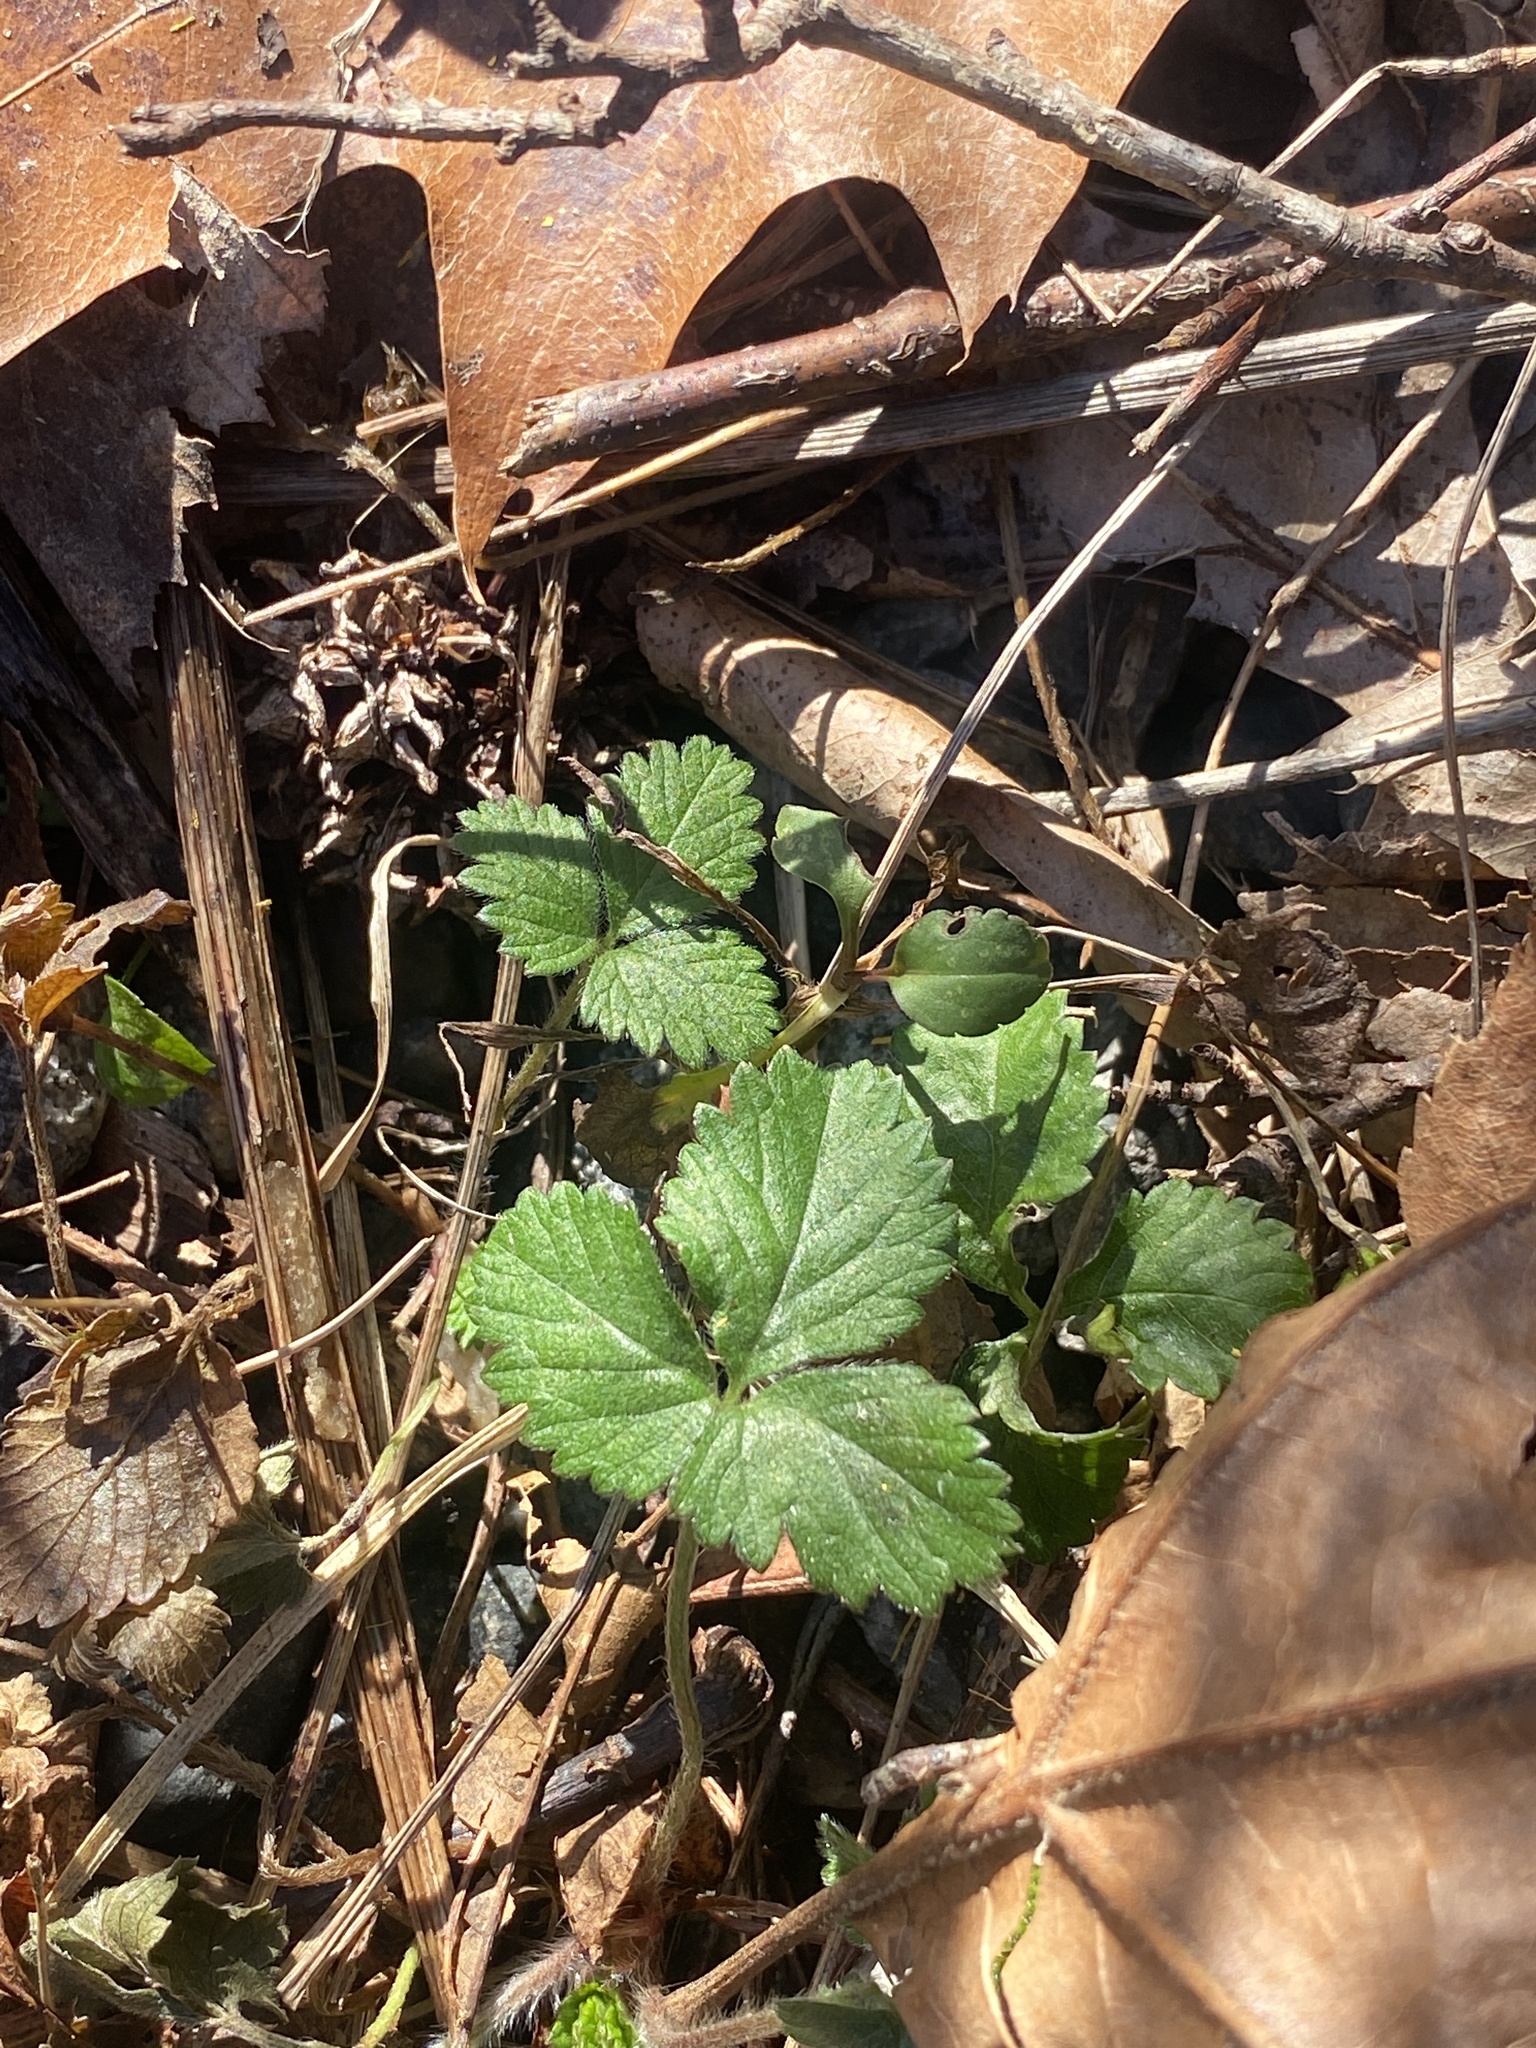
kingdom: Plantae
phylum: Tracheophyta
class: Magnoliopsida
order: Rosales
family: Rosaceae
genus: Potentilla
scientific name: Potentilla indica
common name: Yellow-flowered strawberry
